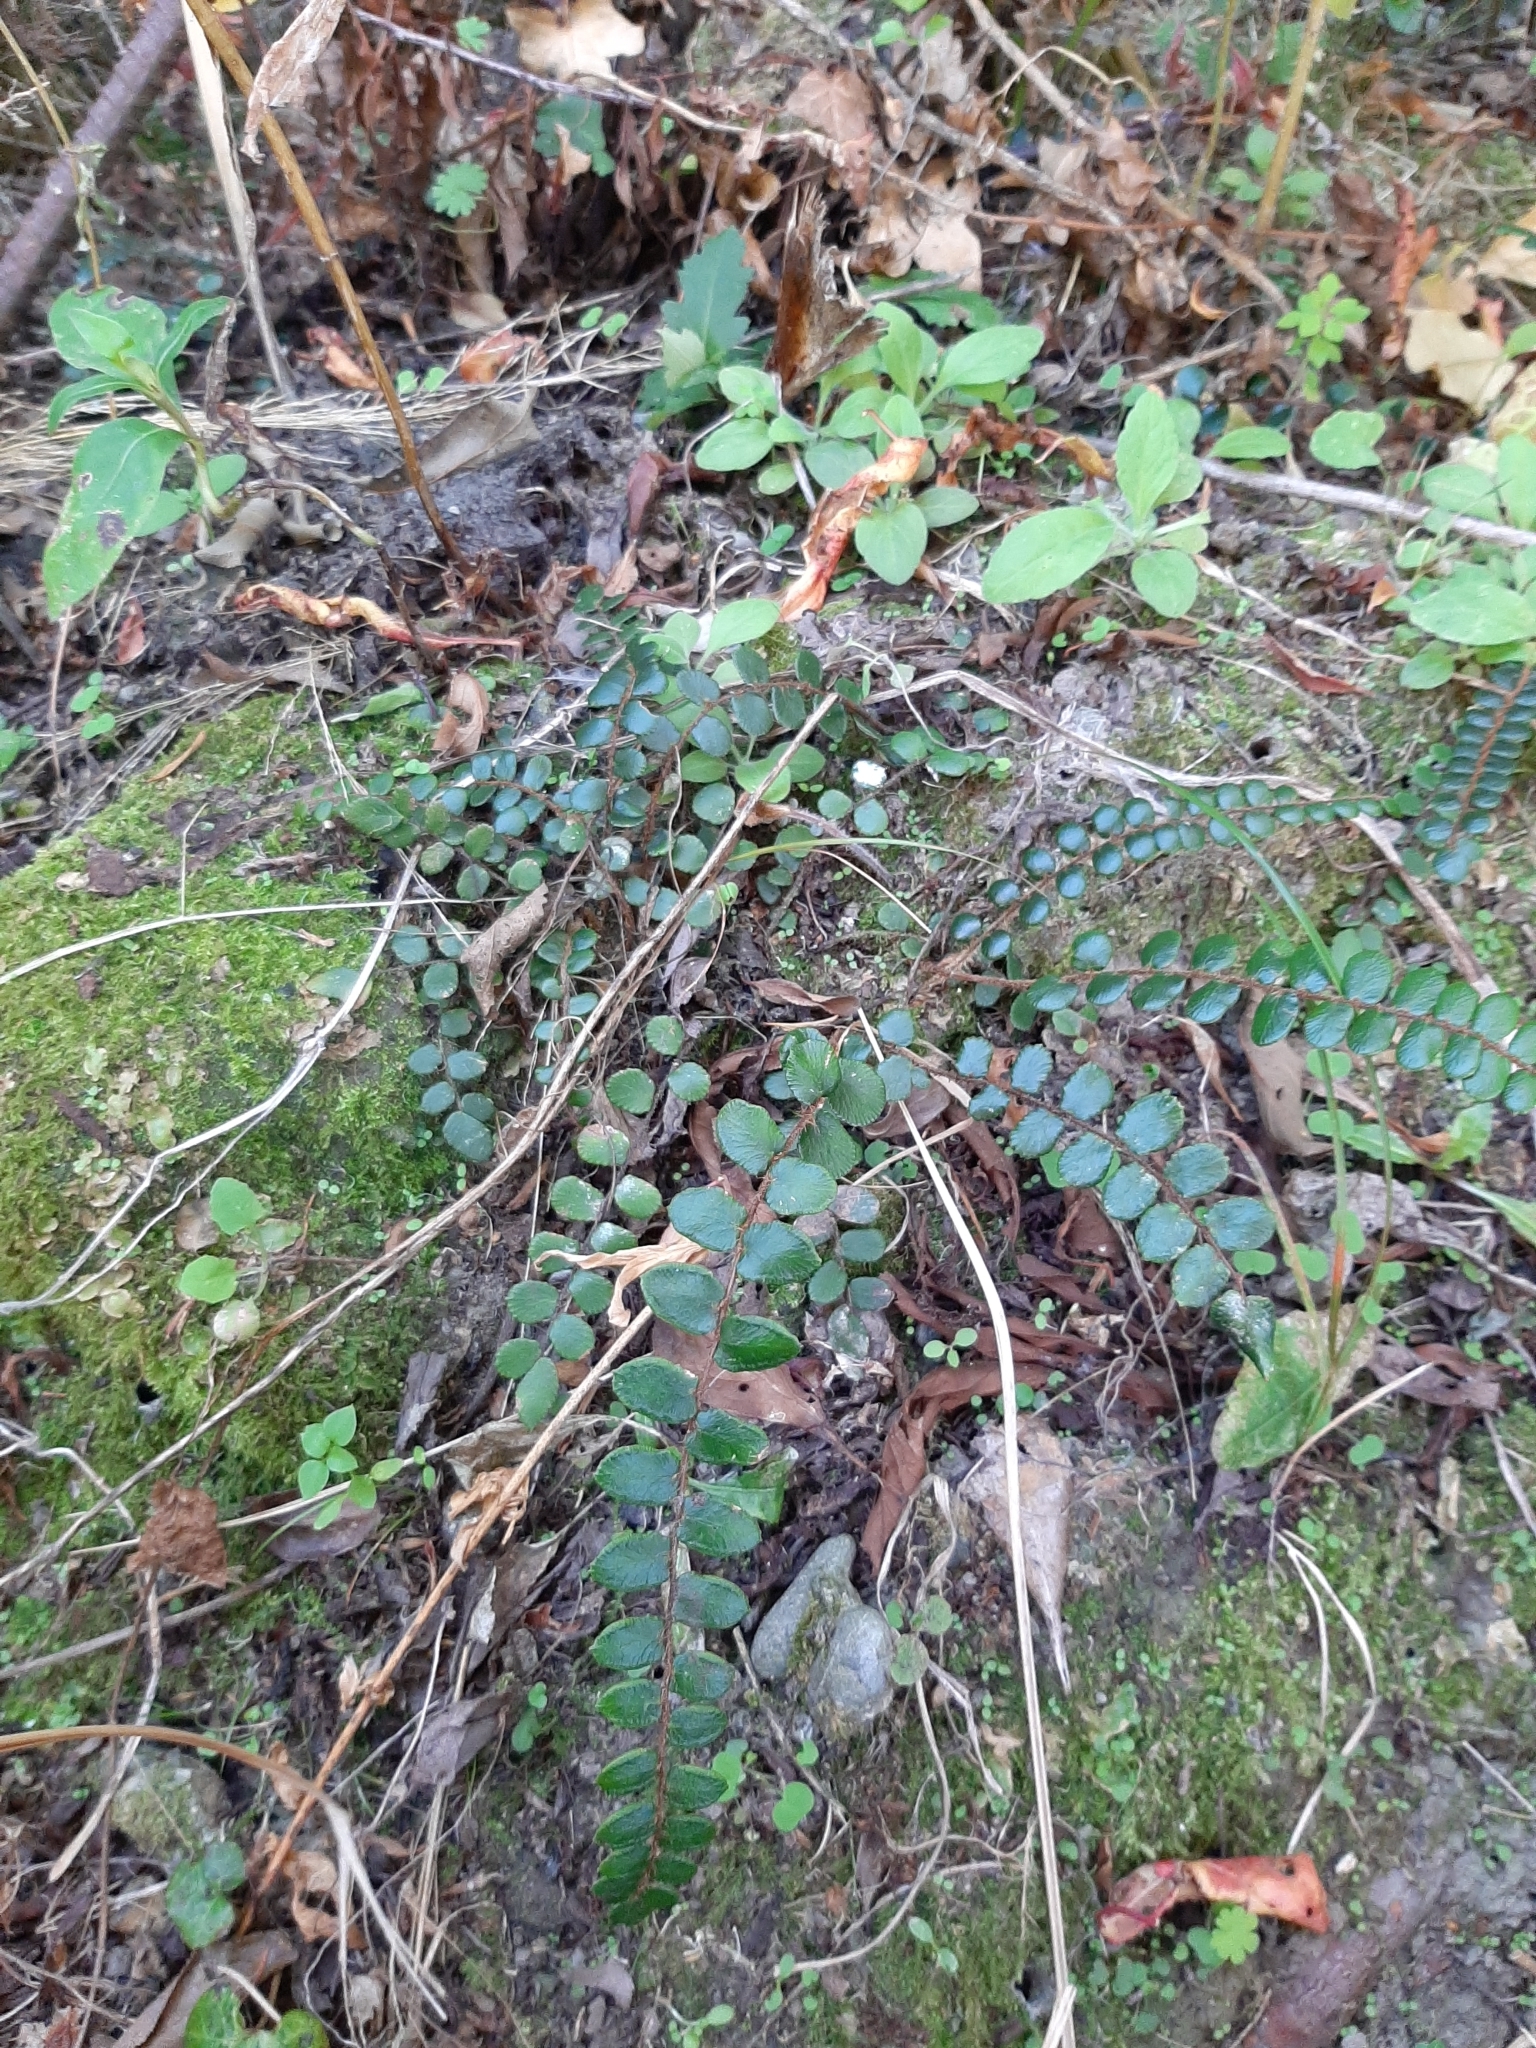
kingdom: Plantae
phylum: Tracheophyta
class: Polypodiopsida
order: Polypodiales
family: Pteridaceae
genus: Pellaea
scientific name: Pellaea rotundifolia
